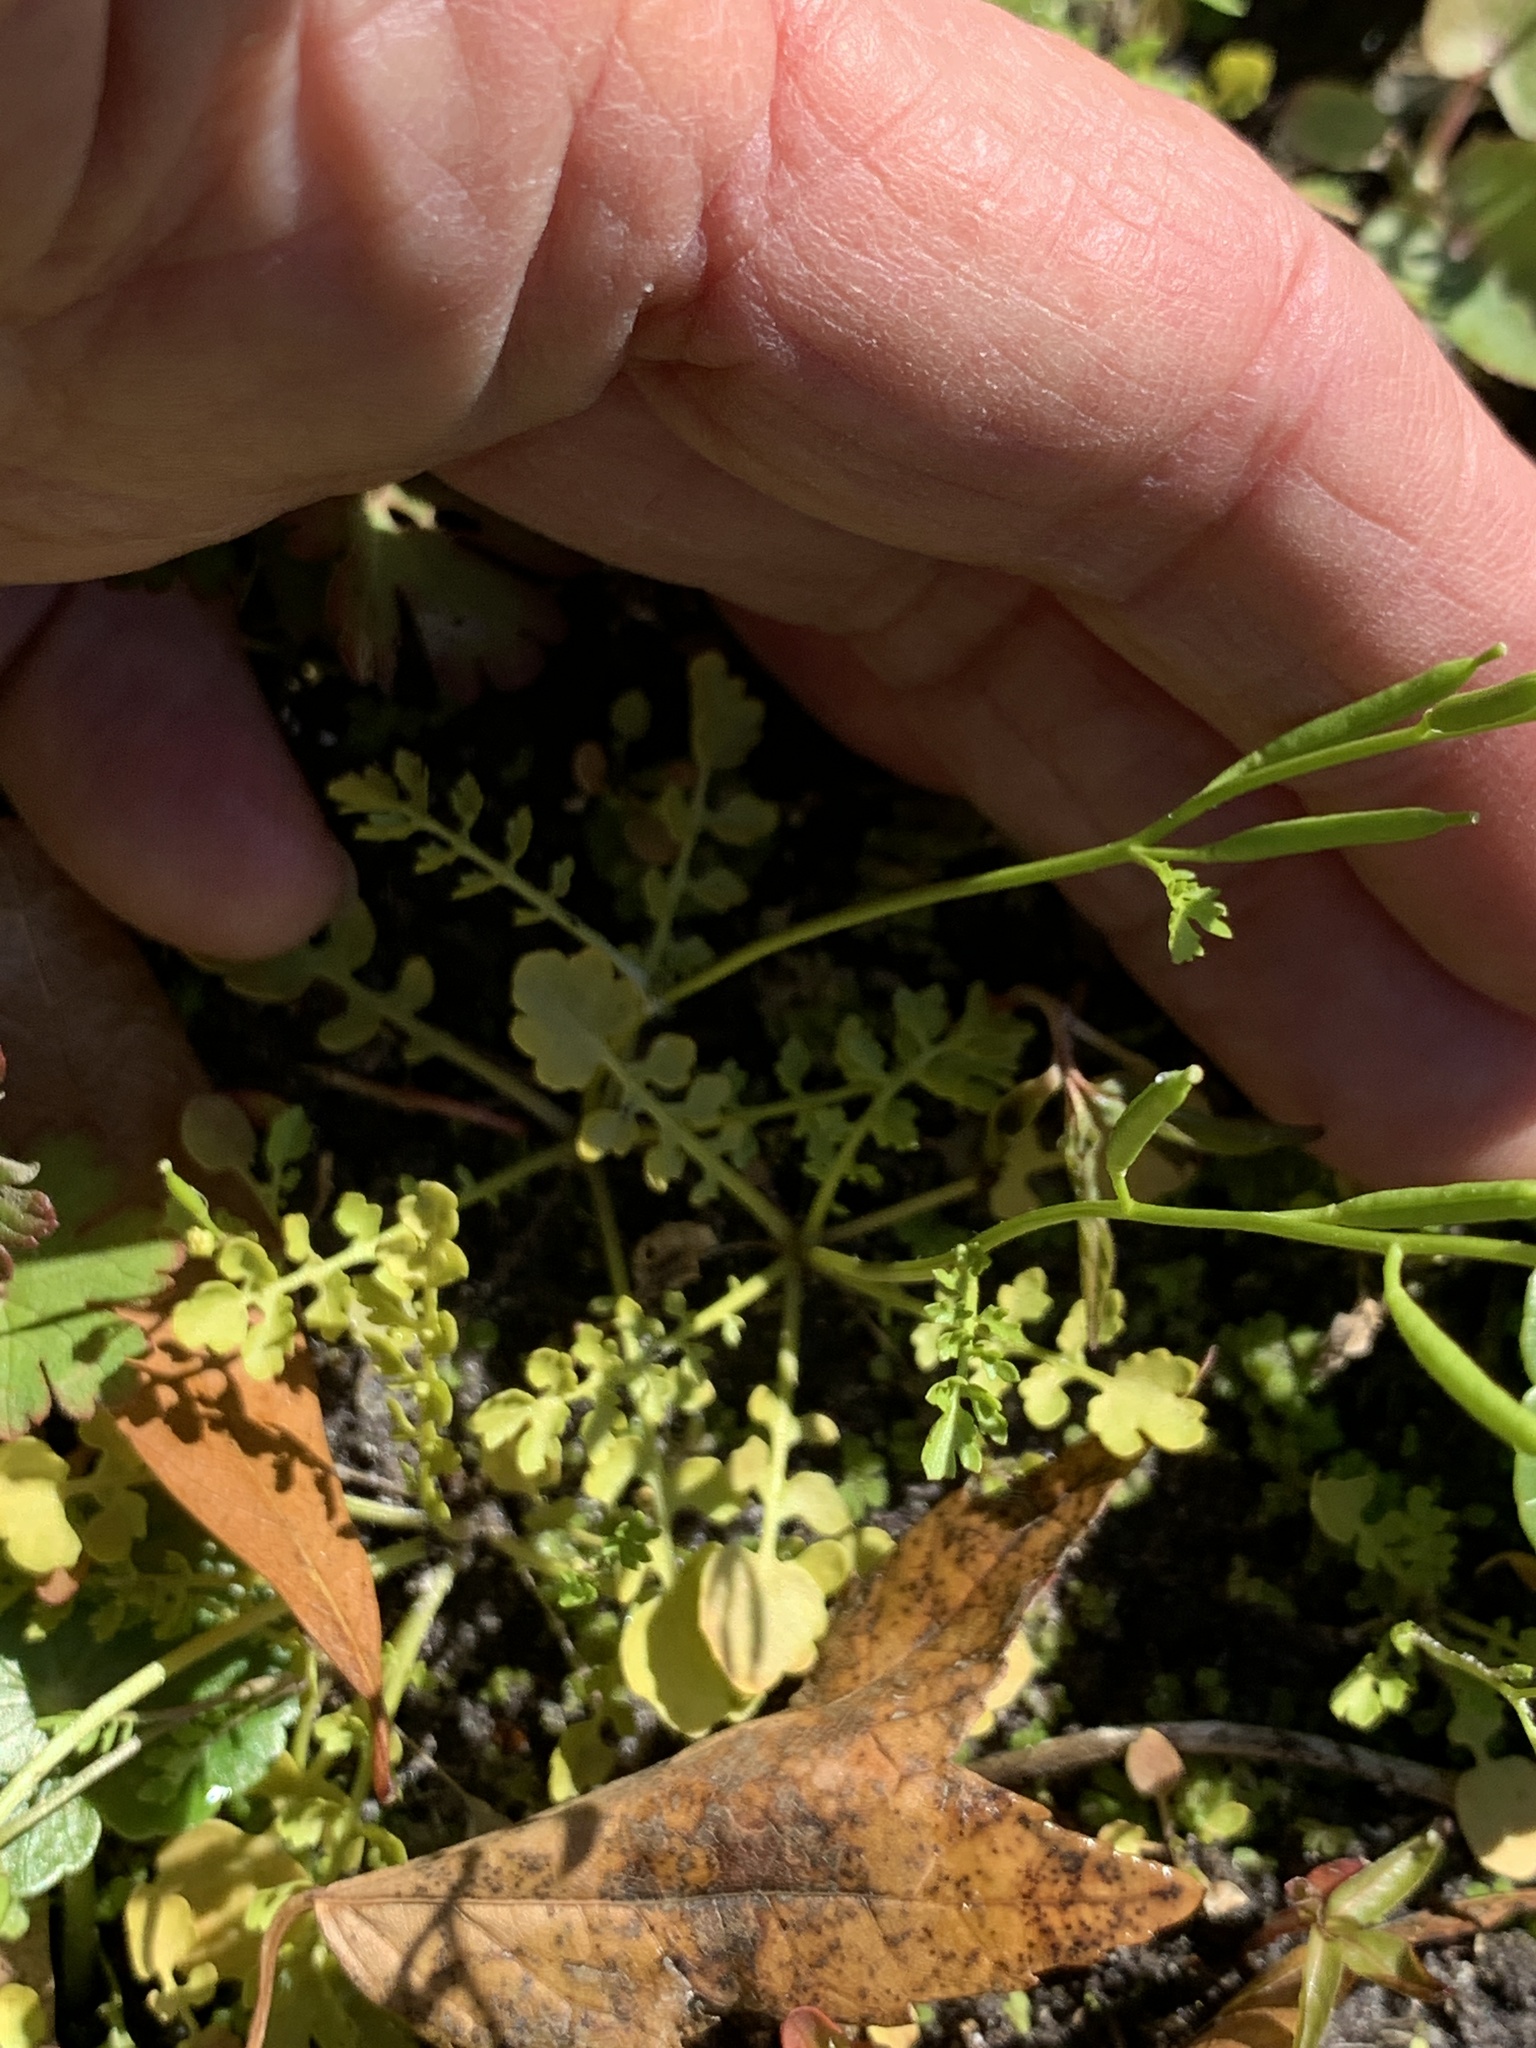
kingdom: Plantae
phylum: Tracheophyta
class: Magnoliopsida
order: Brassicales
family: Brassicaceae
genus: Rorippa
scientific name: Rorippa teres
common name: Southern marsh yellowcress
